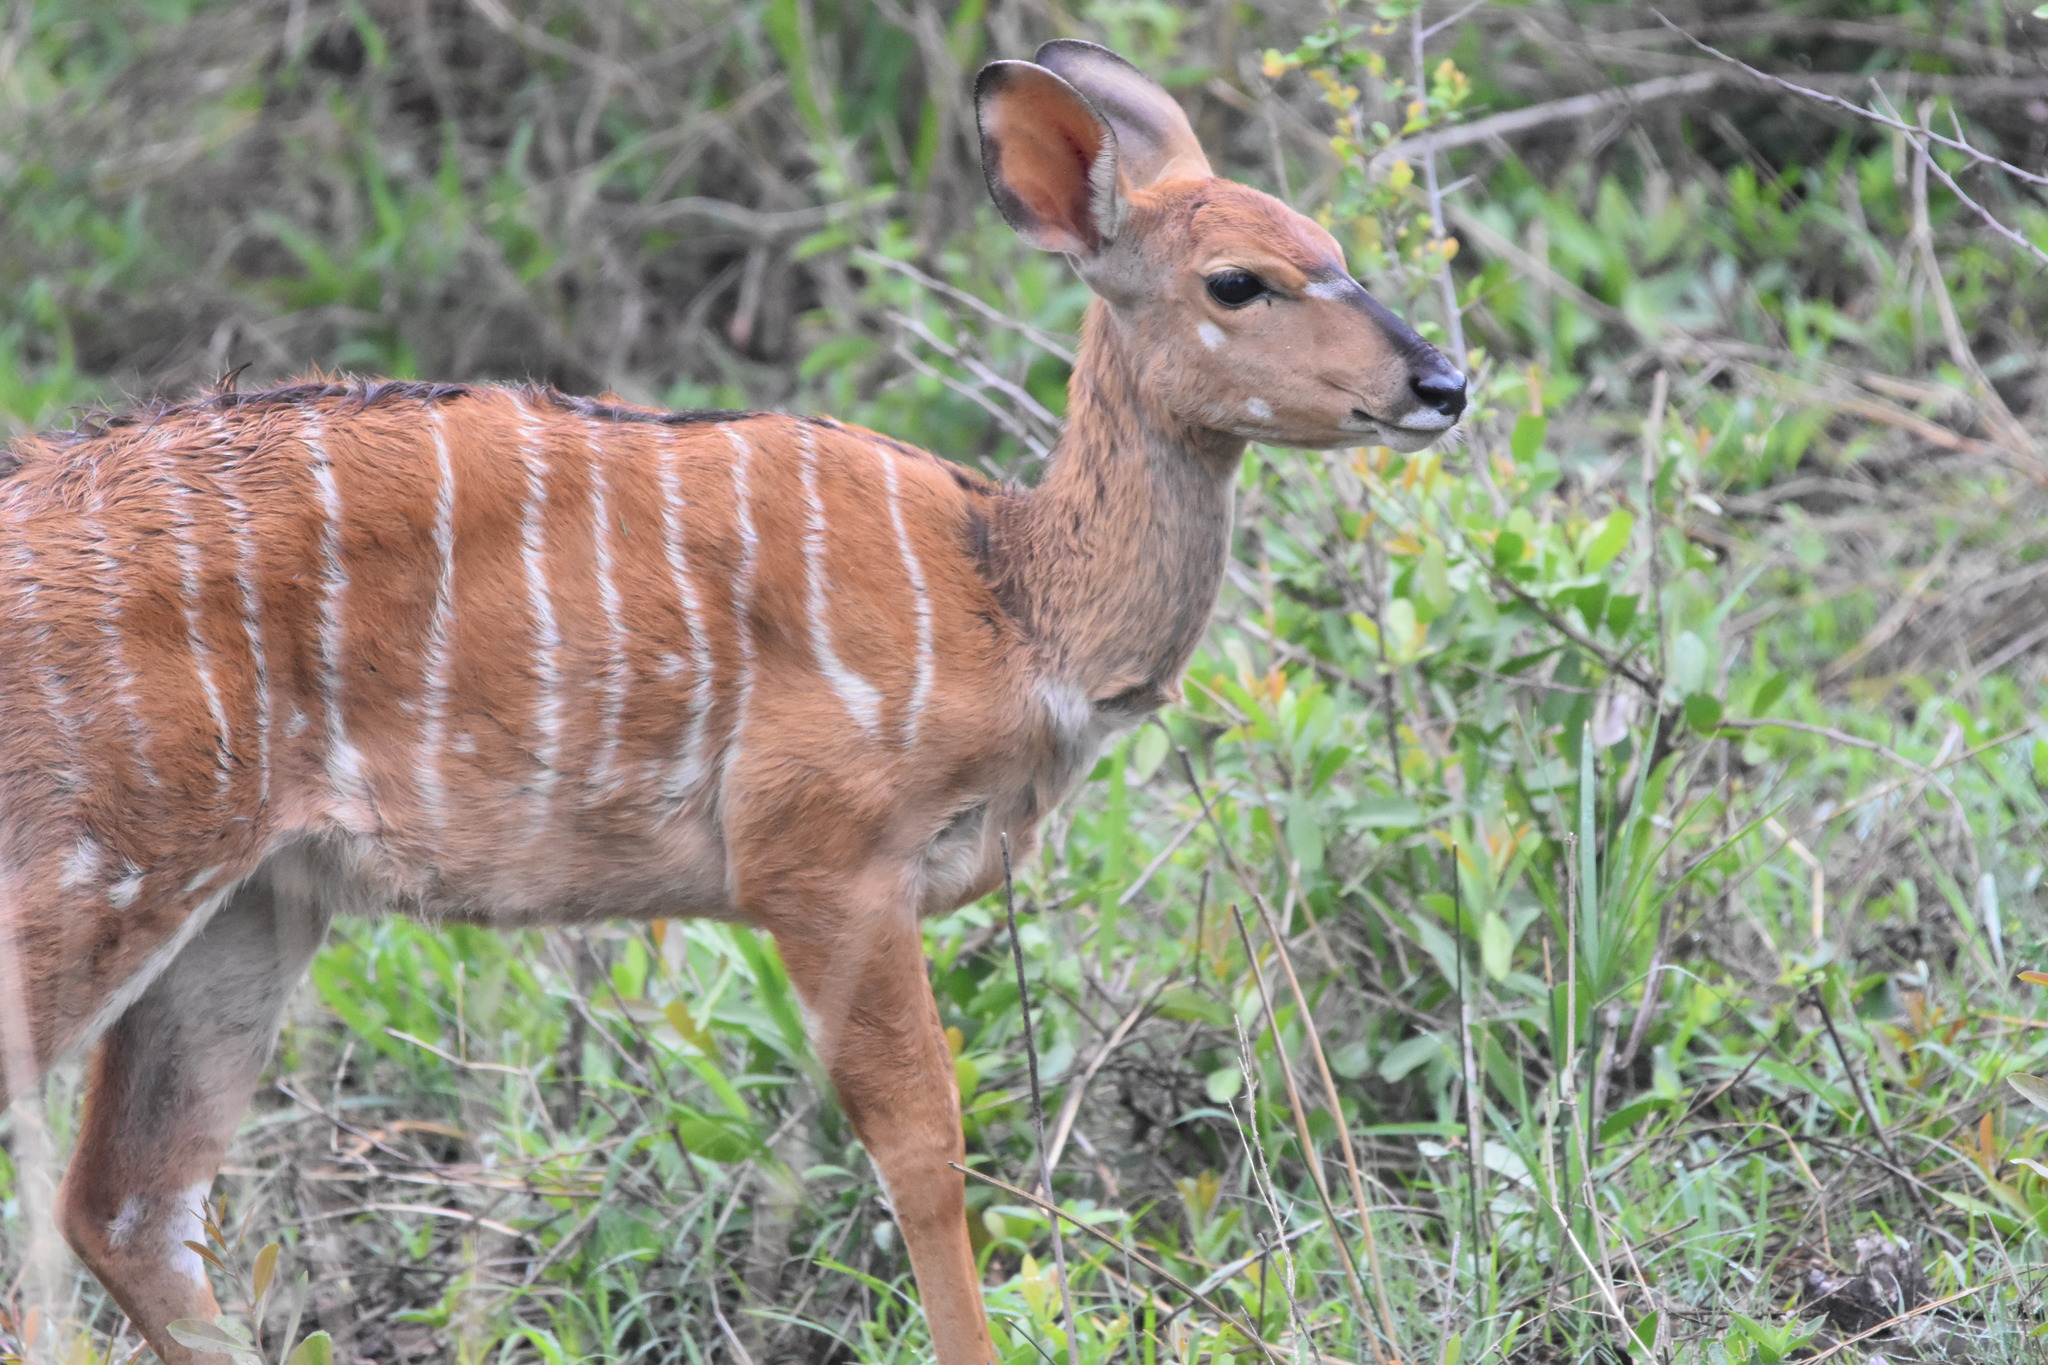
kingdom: Animalia
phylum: Chordata
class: Mammalia
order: Artiodactyla
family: Bovidae
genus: Tragelaphus
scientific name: Tragelaphus angasii
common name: Nyala
